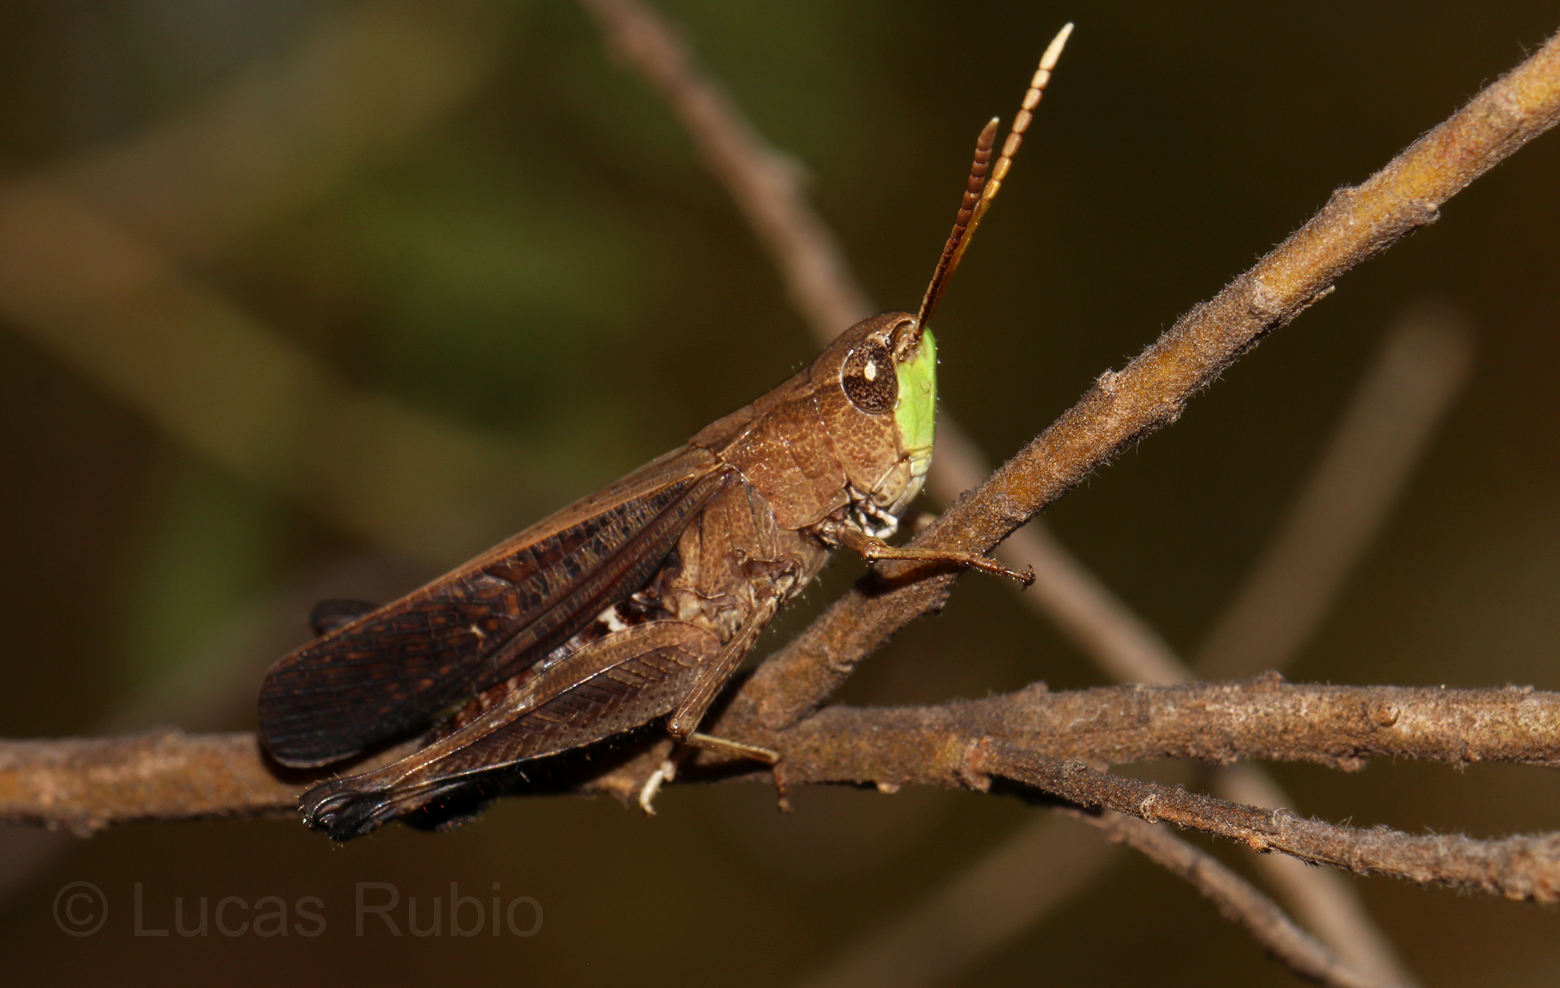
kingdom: Animalia
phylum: Arthropoda
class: Insecta
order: Orthoptera
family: Acrididae
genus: Fenestra
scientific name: Fenestra bohlsii
